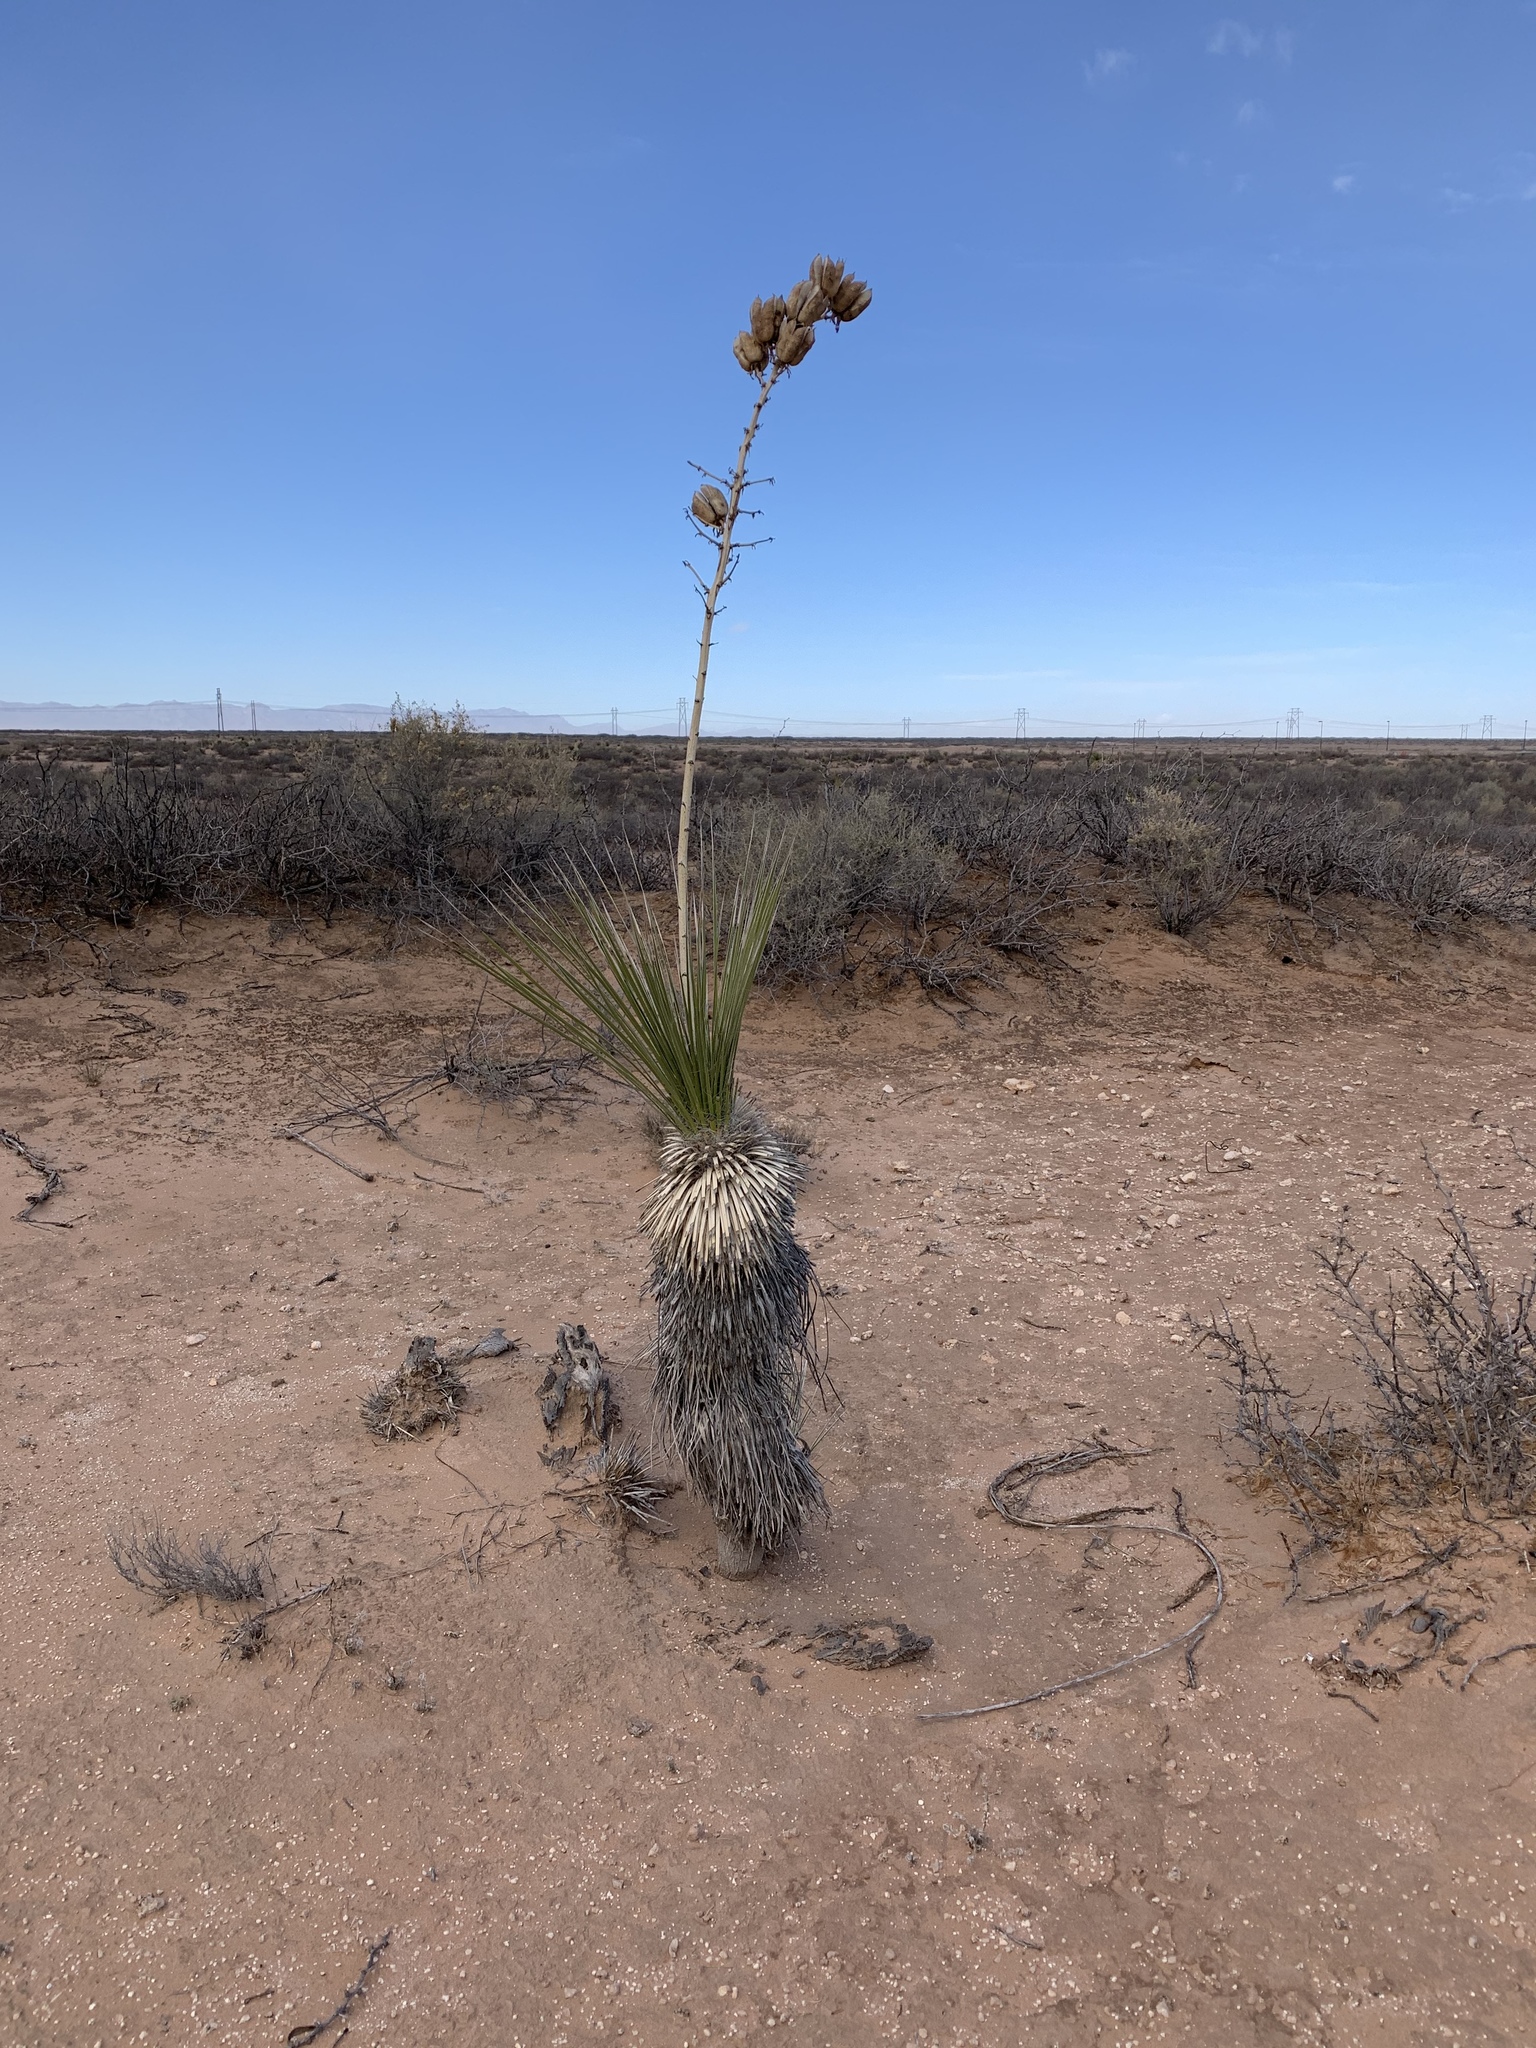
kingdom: Plantae
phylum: Tracheophyta
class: Liliopsida
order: Asparagales
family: Asparagaceae
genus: Yucca
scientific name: Yucca elata
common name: Palmella
